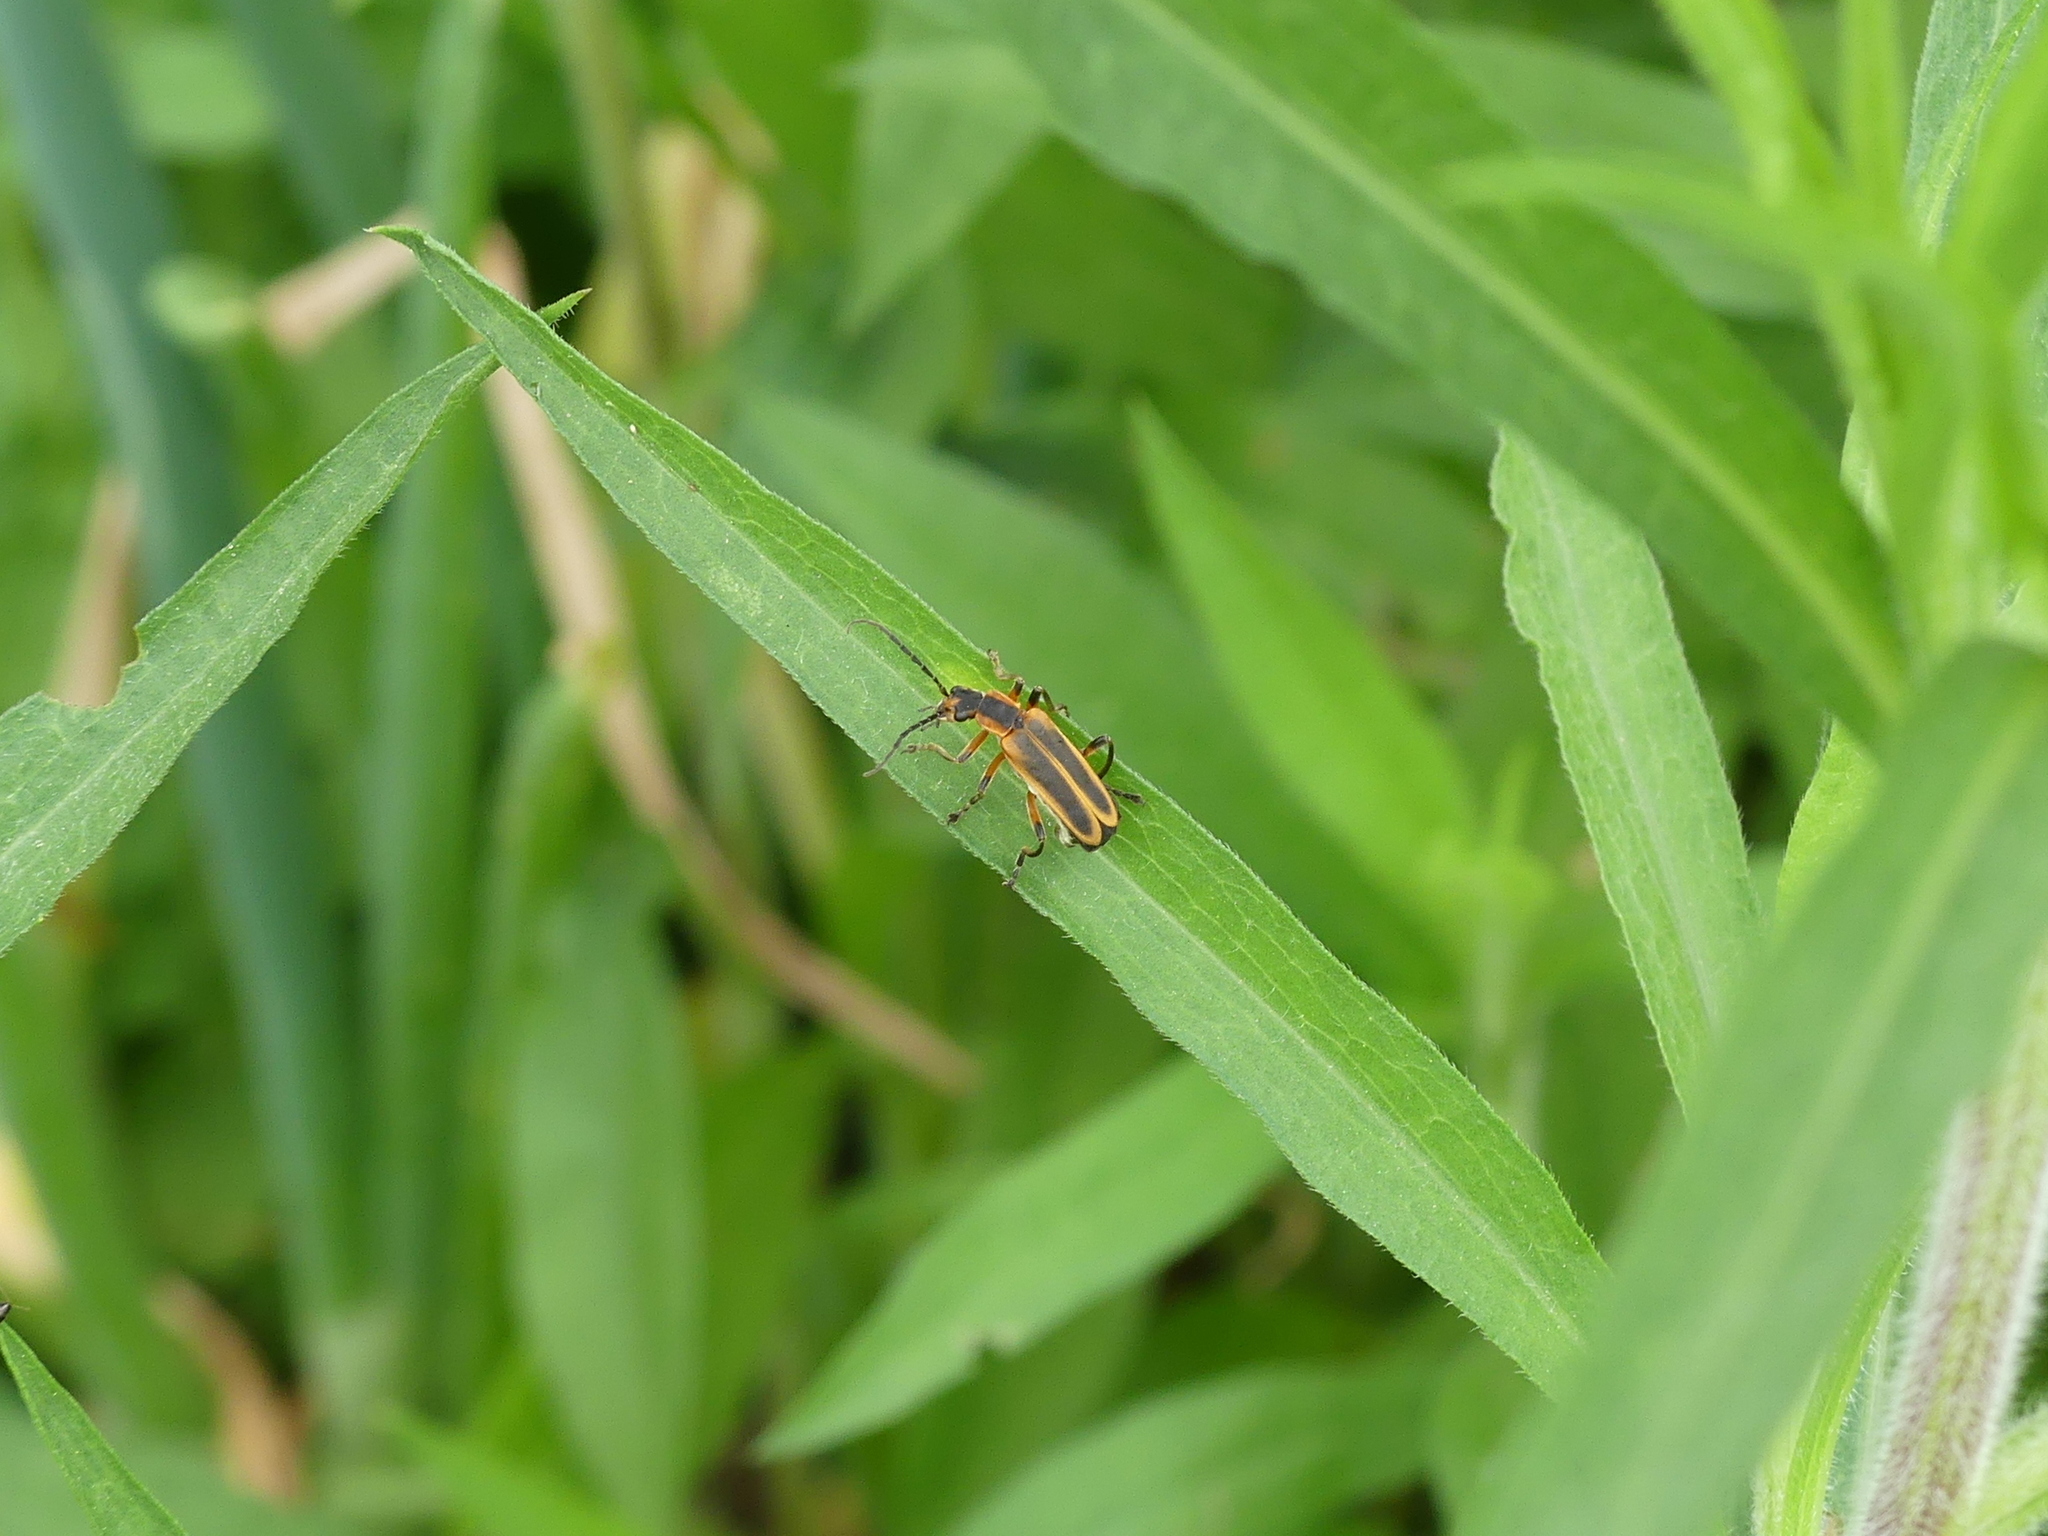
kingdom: Animalia
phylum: Arthropoda
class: Insecta
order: Coleoptera
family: Cantharidae
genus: Chauliognathus
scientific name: Chauliognathus marginatus
